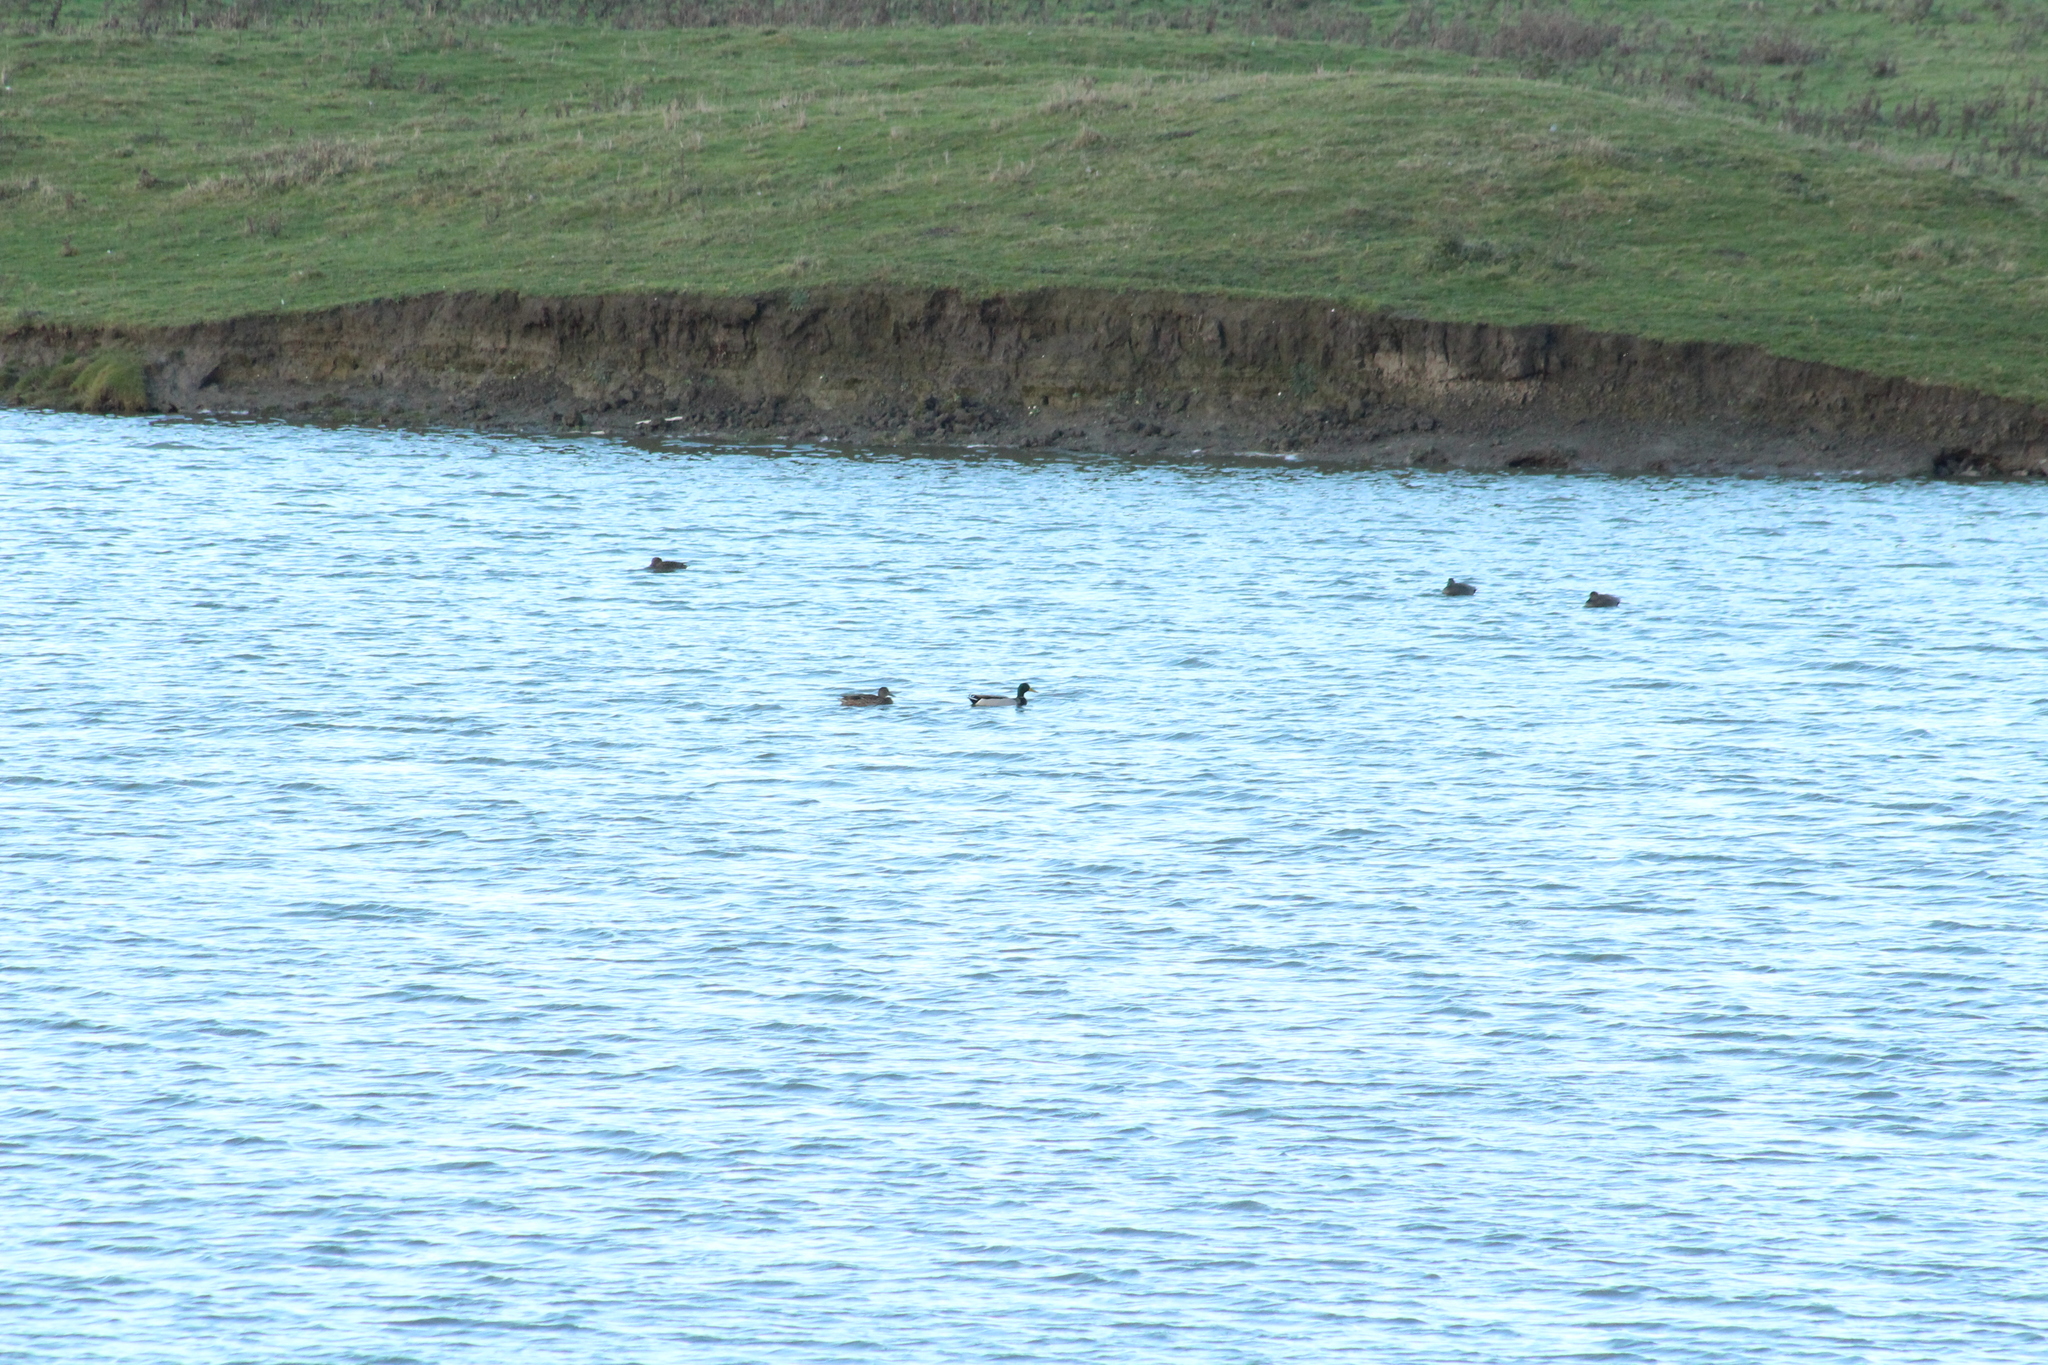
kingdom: Animalia
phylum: Chordata
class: Aves
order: Anseriformes
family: Anatidae
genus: Anas
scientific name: Anas platyrhynchos
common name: Mallard
